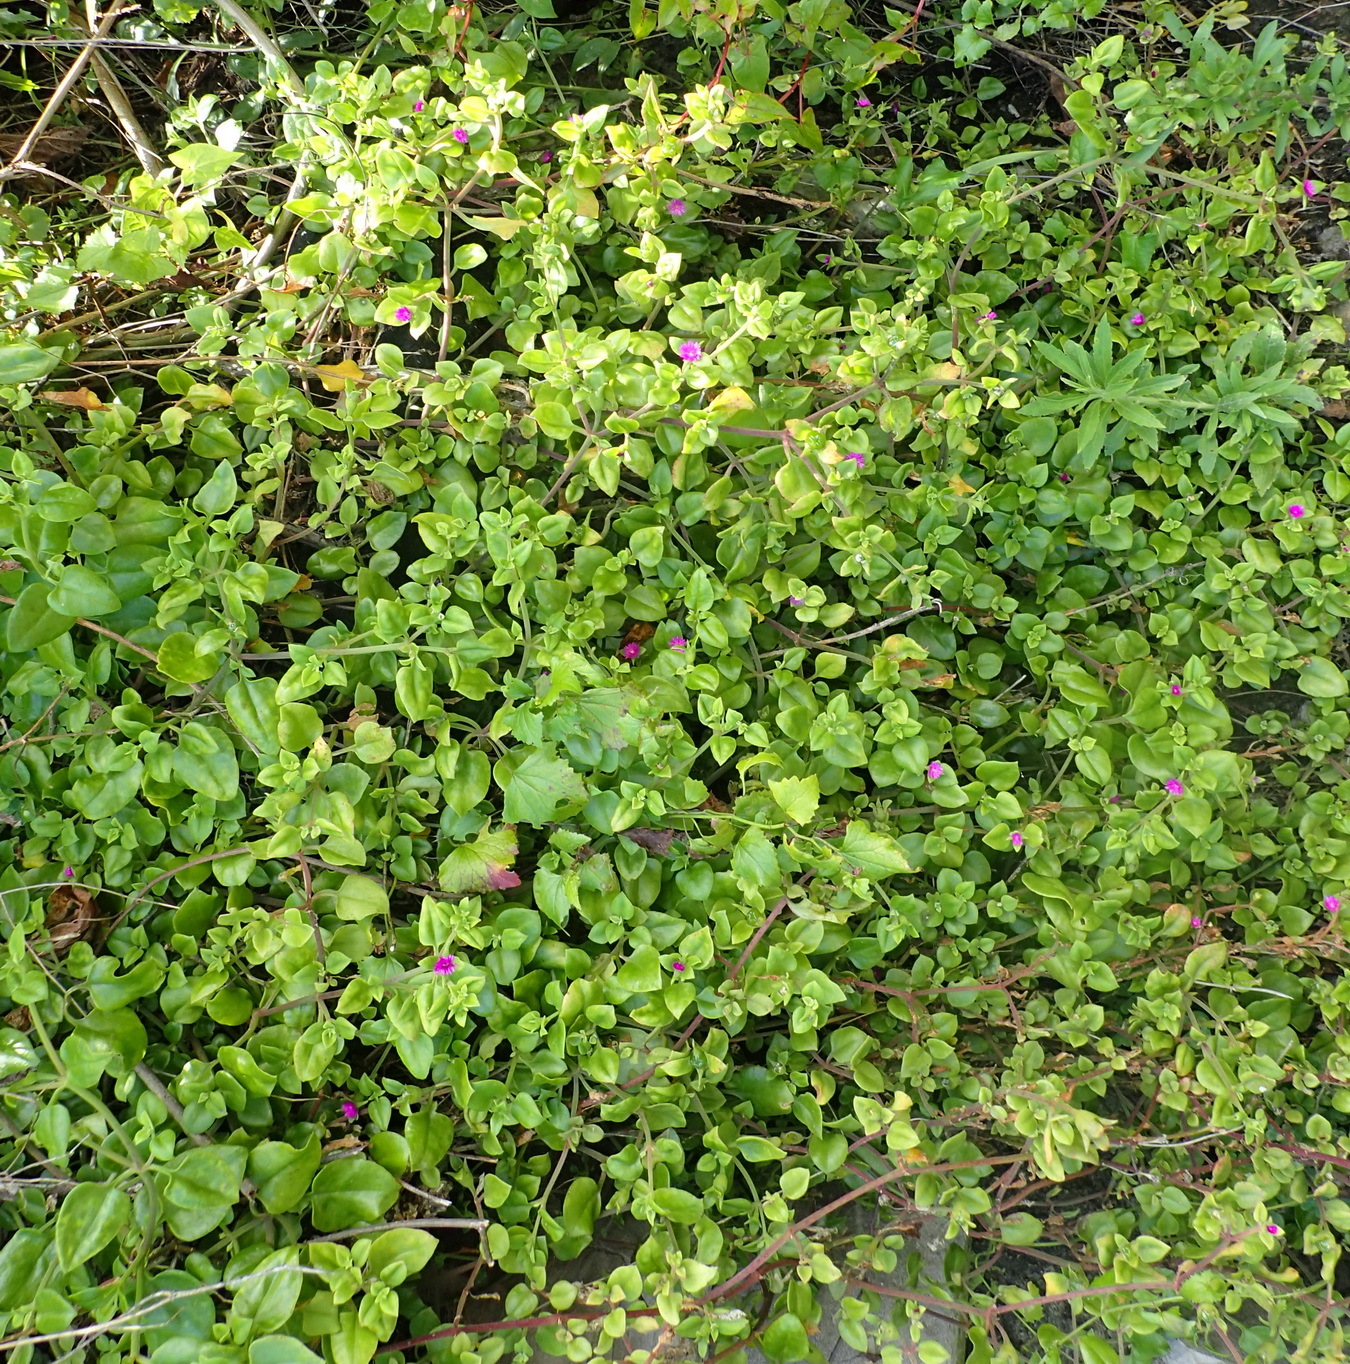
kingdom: Plantae
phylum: Tracheophyta
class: Magnoliopsida
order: Caryophyllales
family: Aizoaceae
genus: Mesembryanthemum
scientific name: Mesembryanthemum cordifolium
